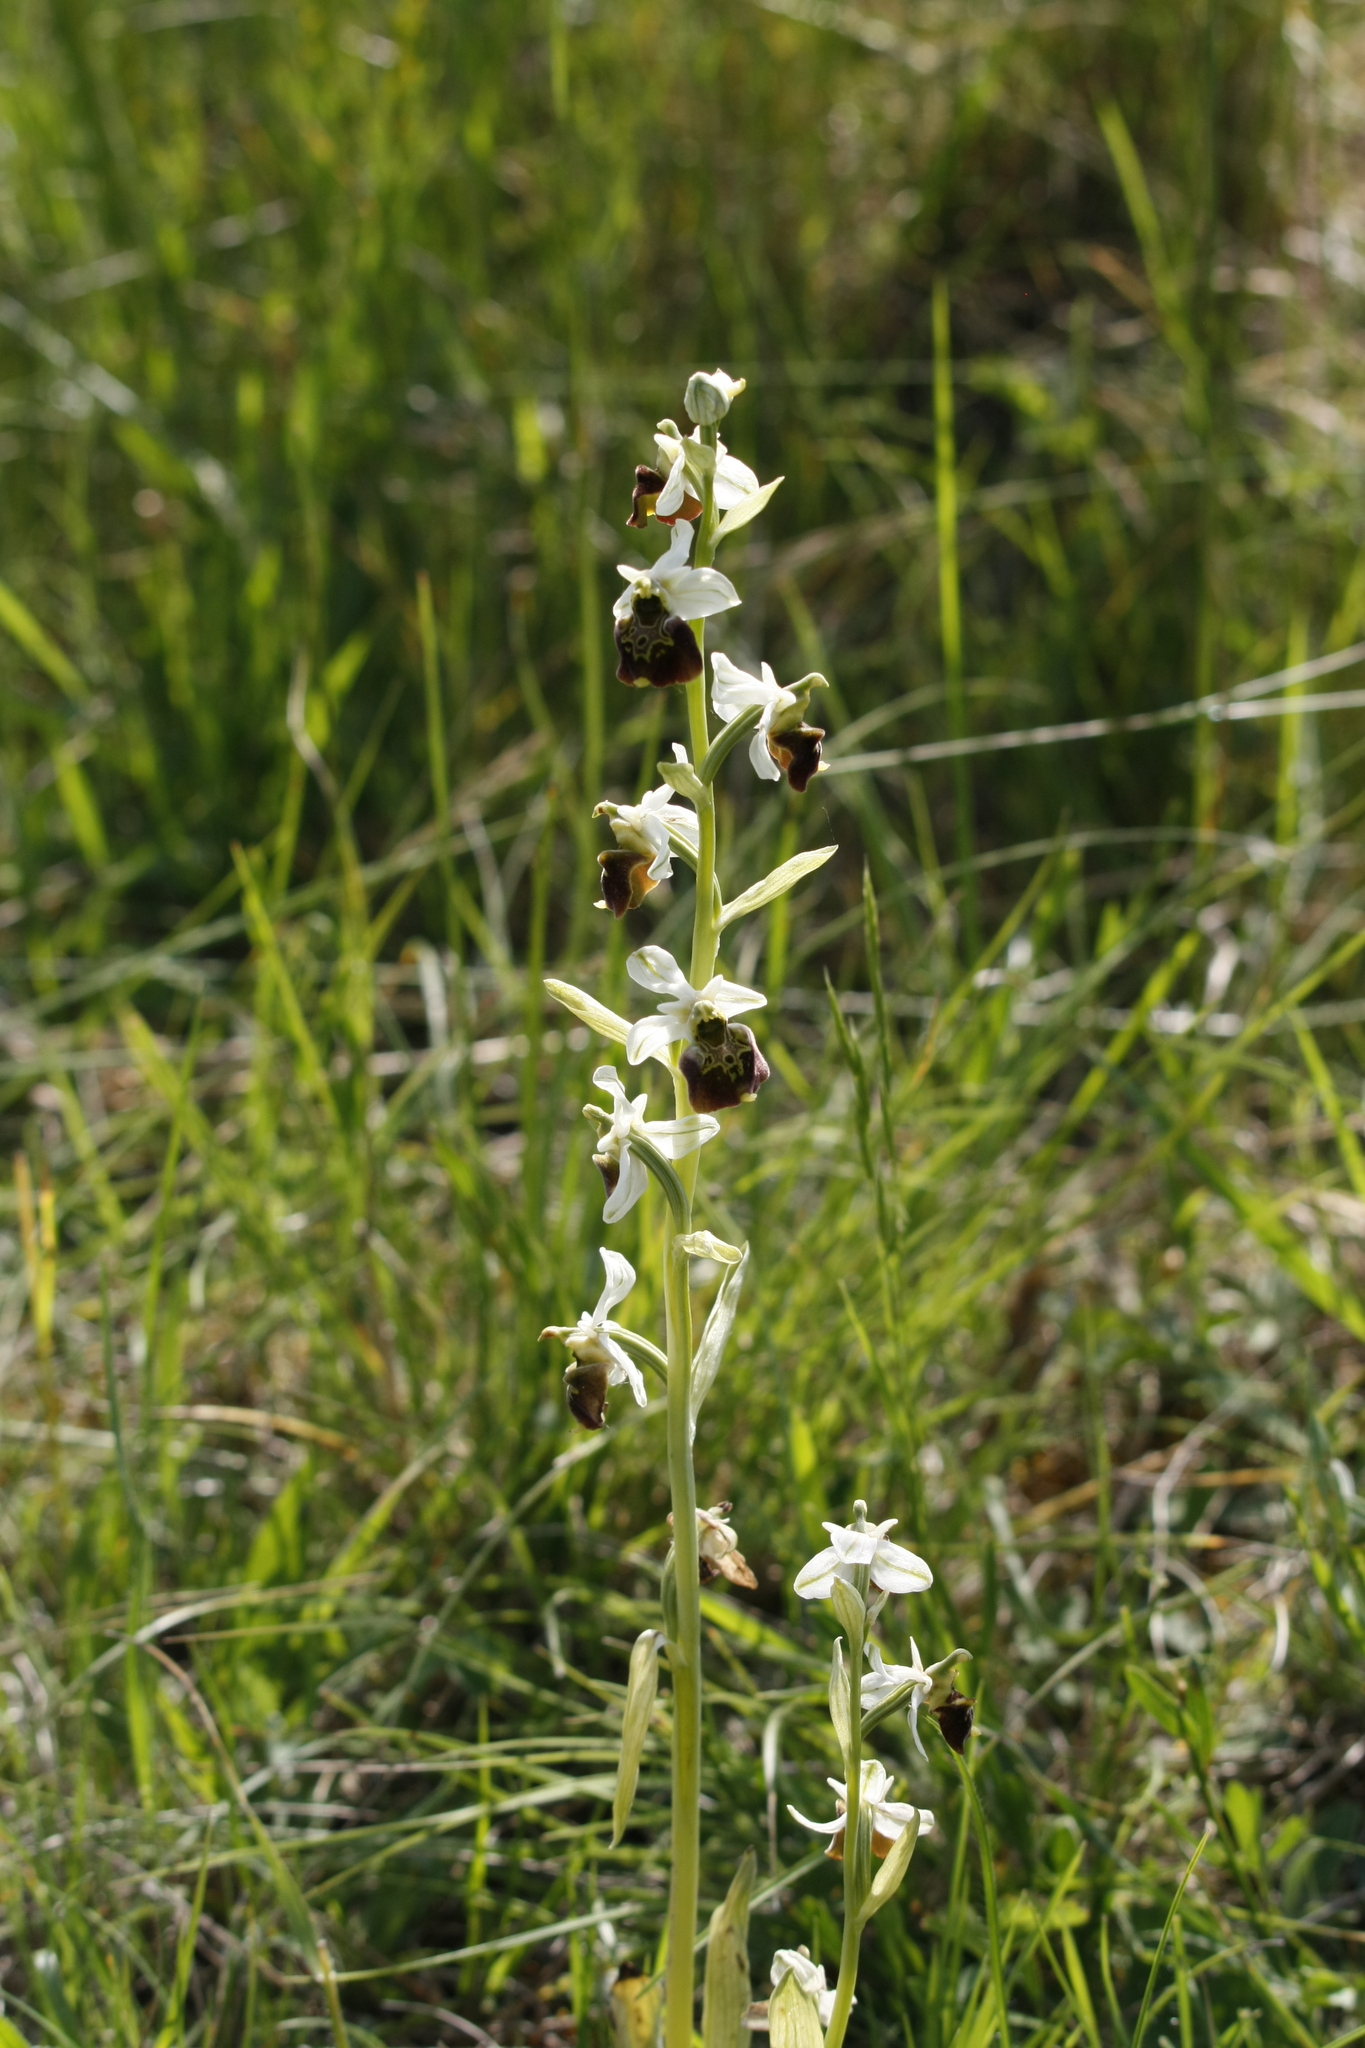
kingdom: Plantae
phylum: Tracheophyta
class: Liliopsida
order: Asparagales
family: Orchidaceae
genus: Ophrys
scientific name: Ophrys holosericea
